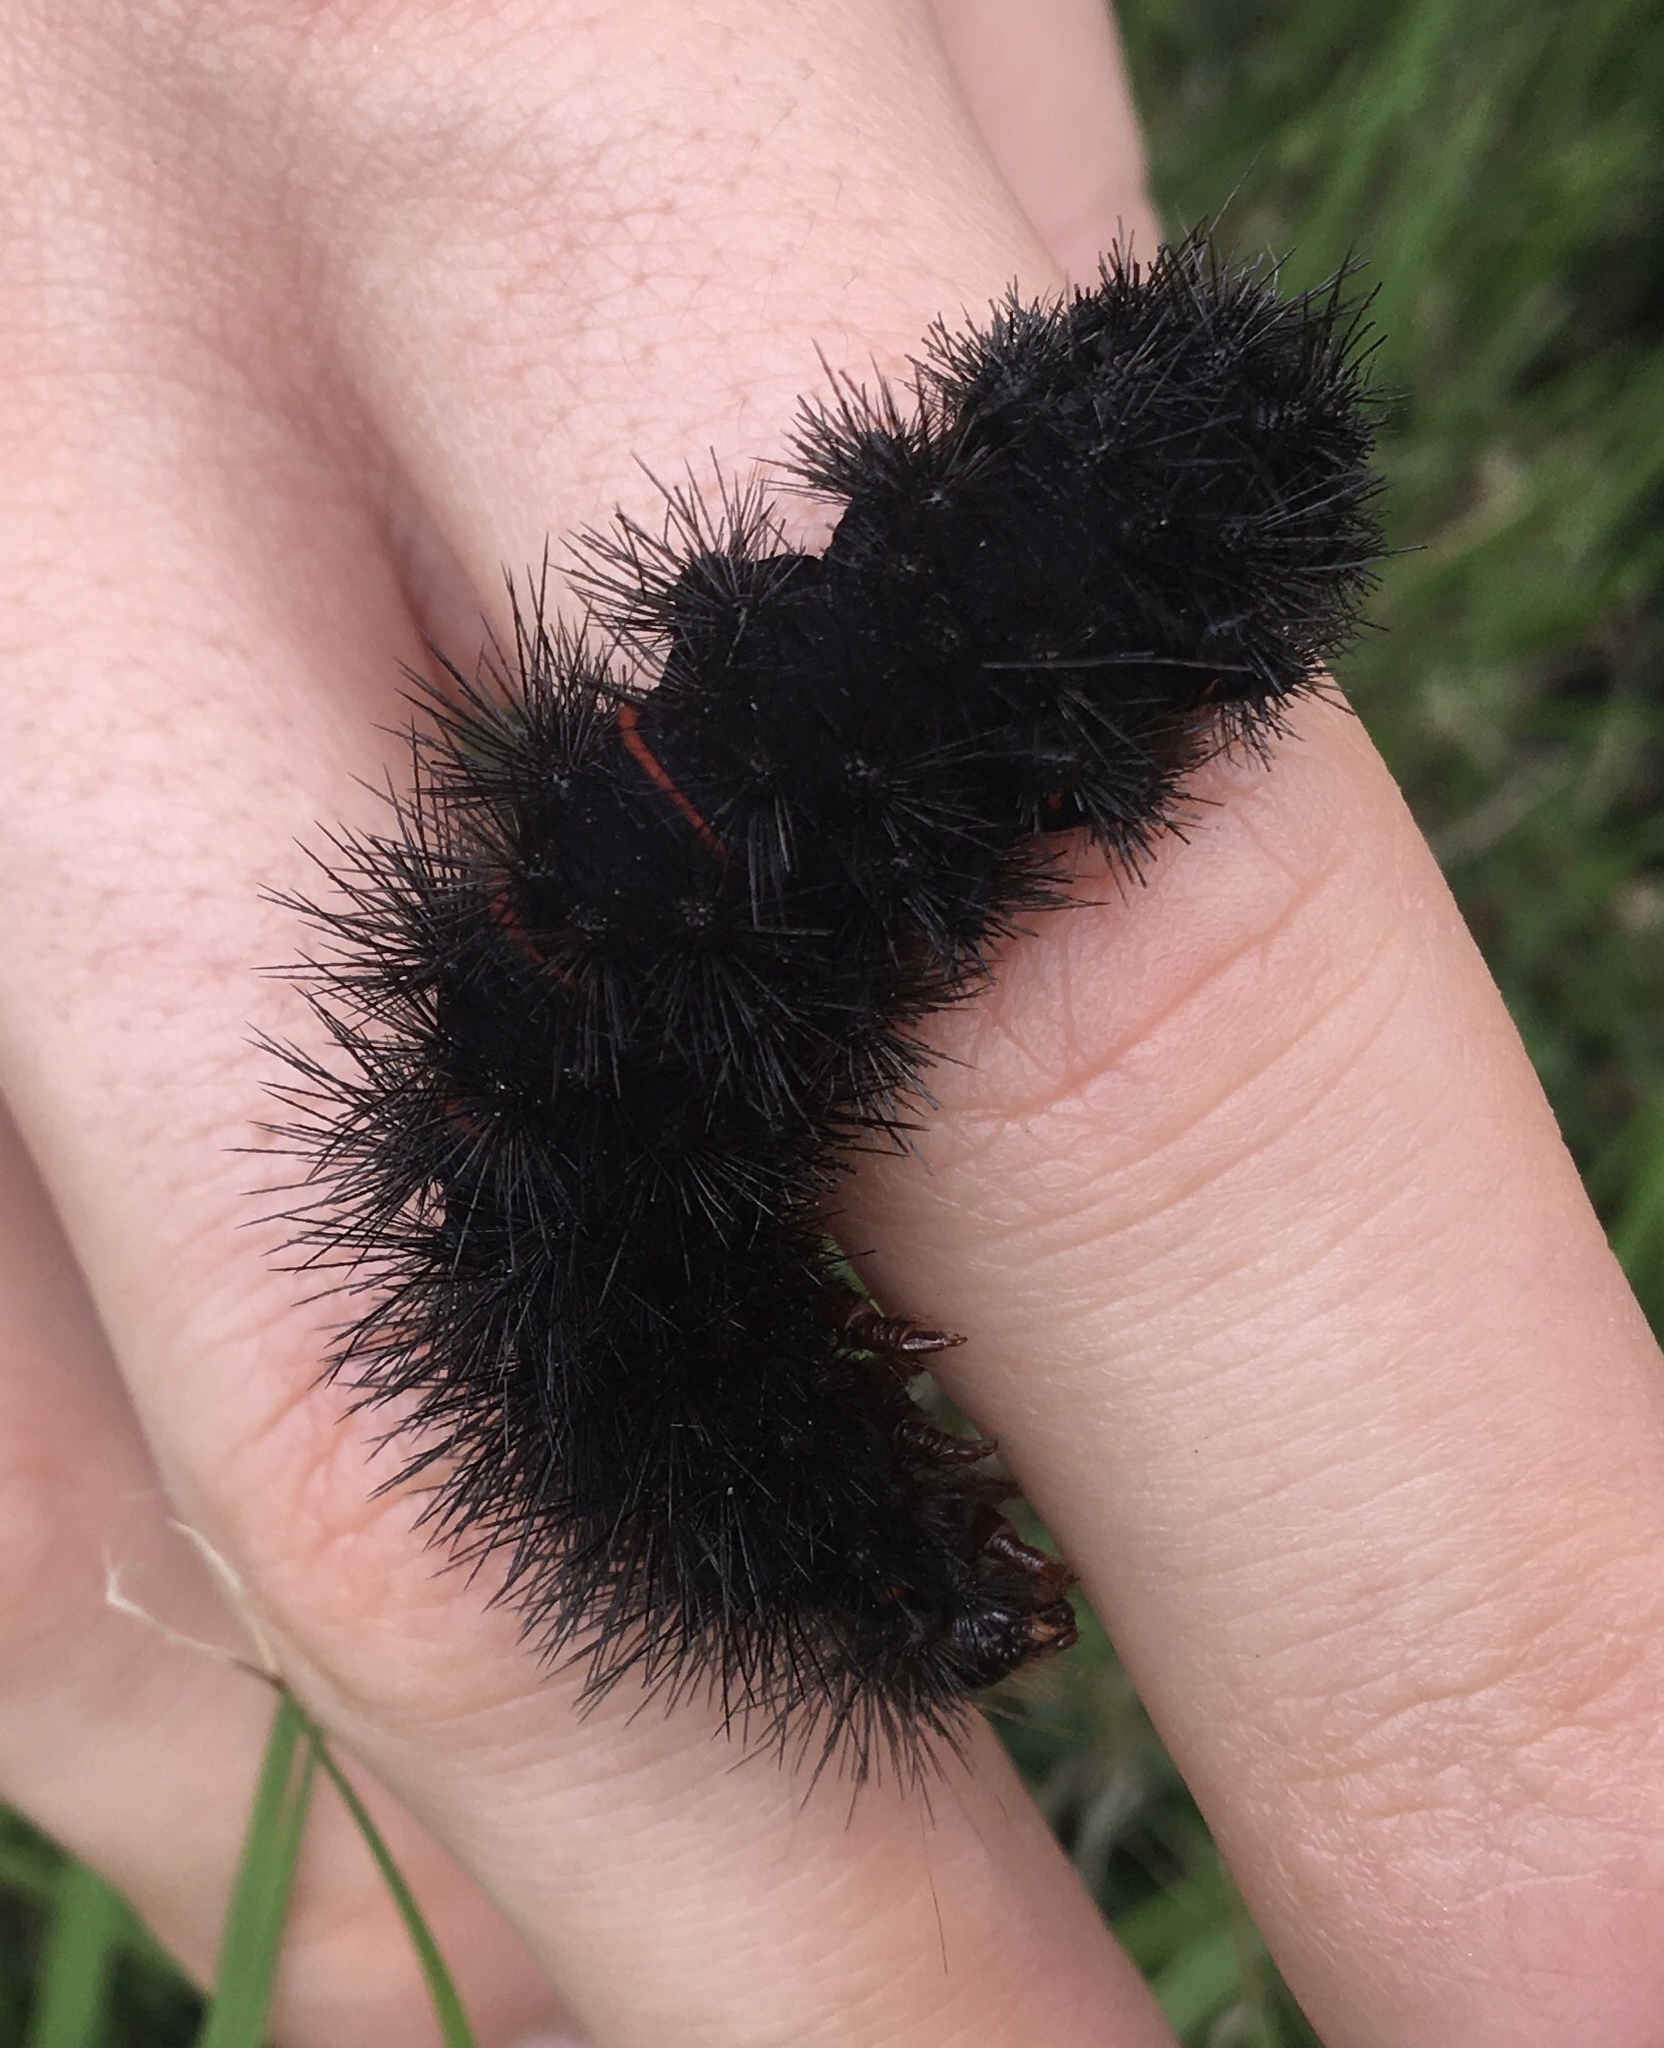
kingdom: Animalia
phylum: Arthropoda
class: Insecta
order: Lepidoptera
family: Erebidae
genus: Hypercompe
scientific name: Hypercompe scribonia
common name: Giant leopard moth
